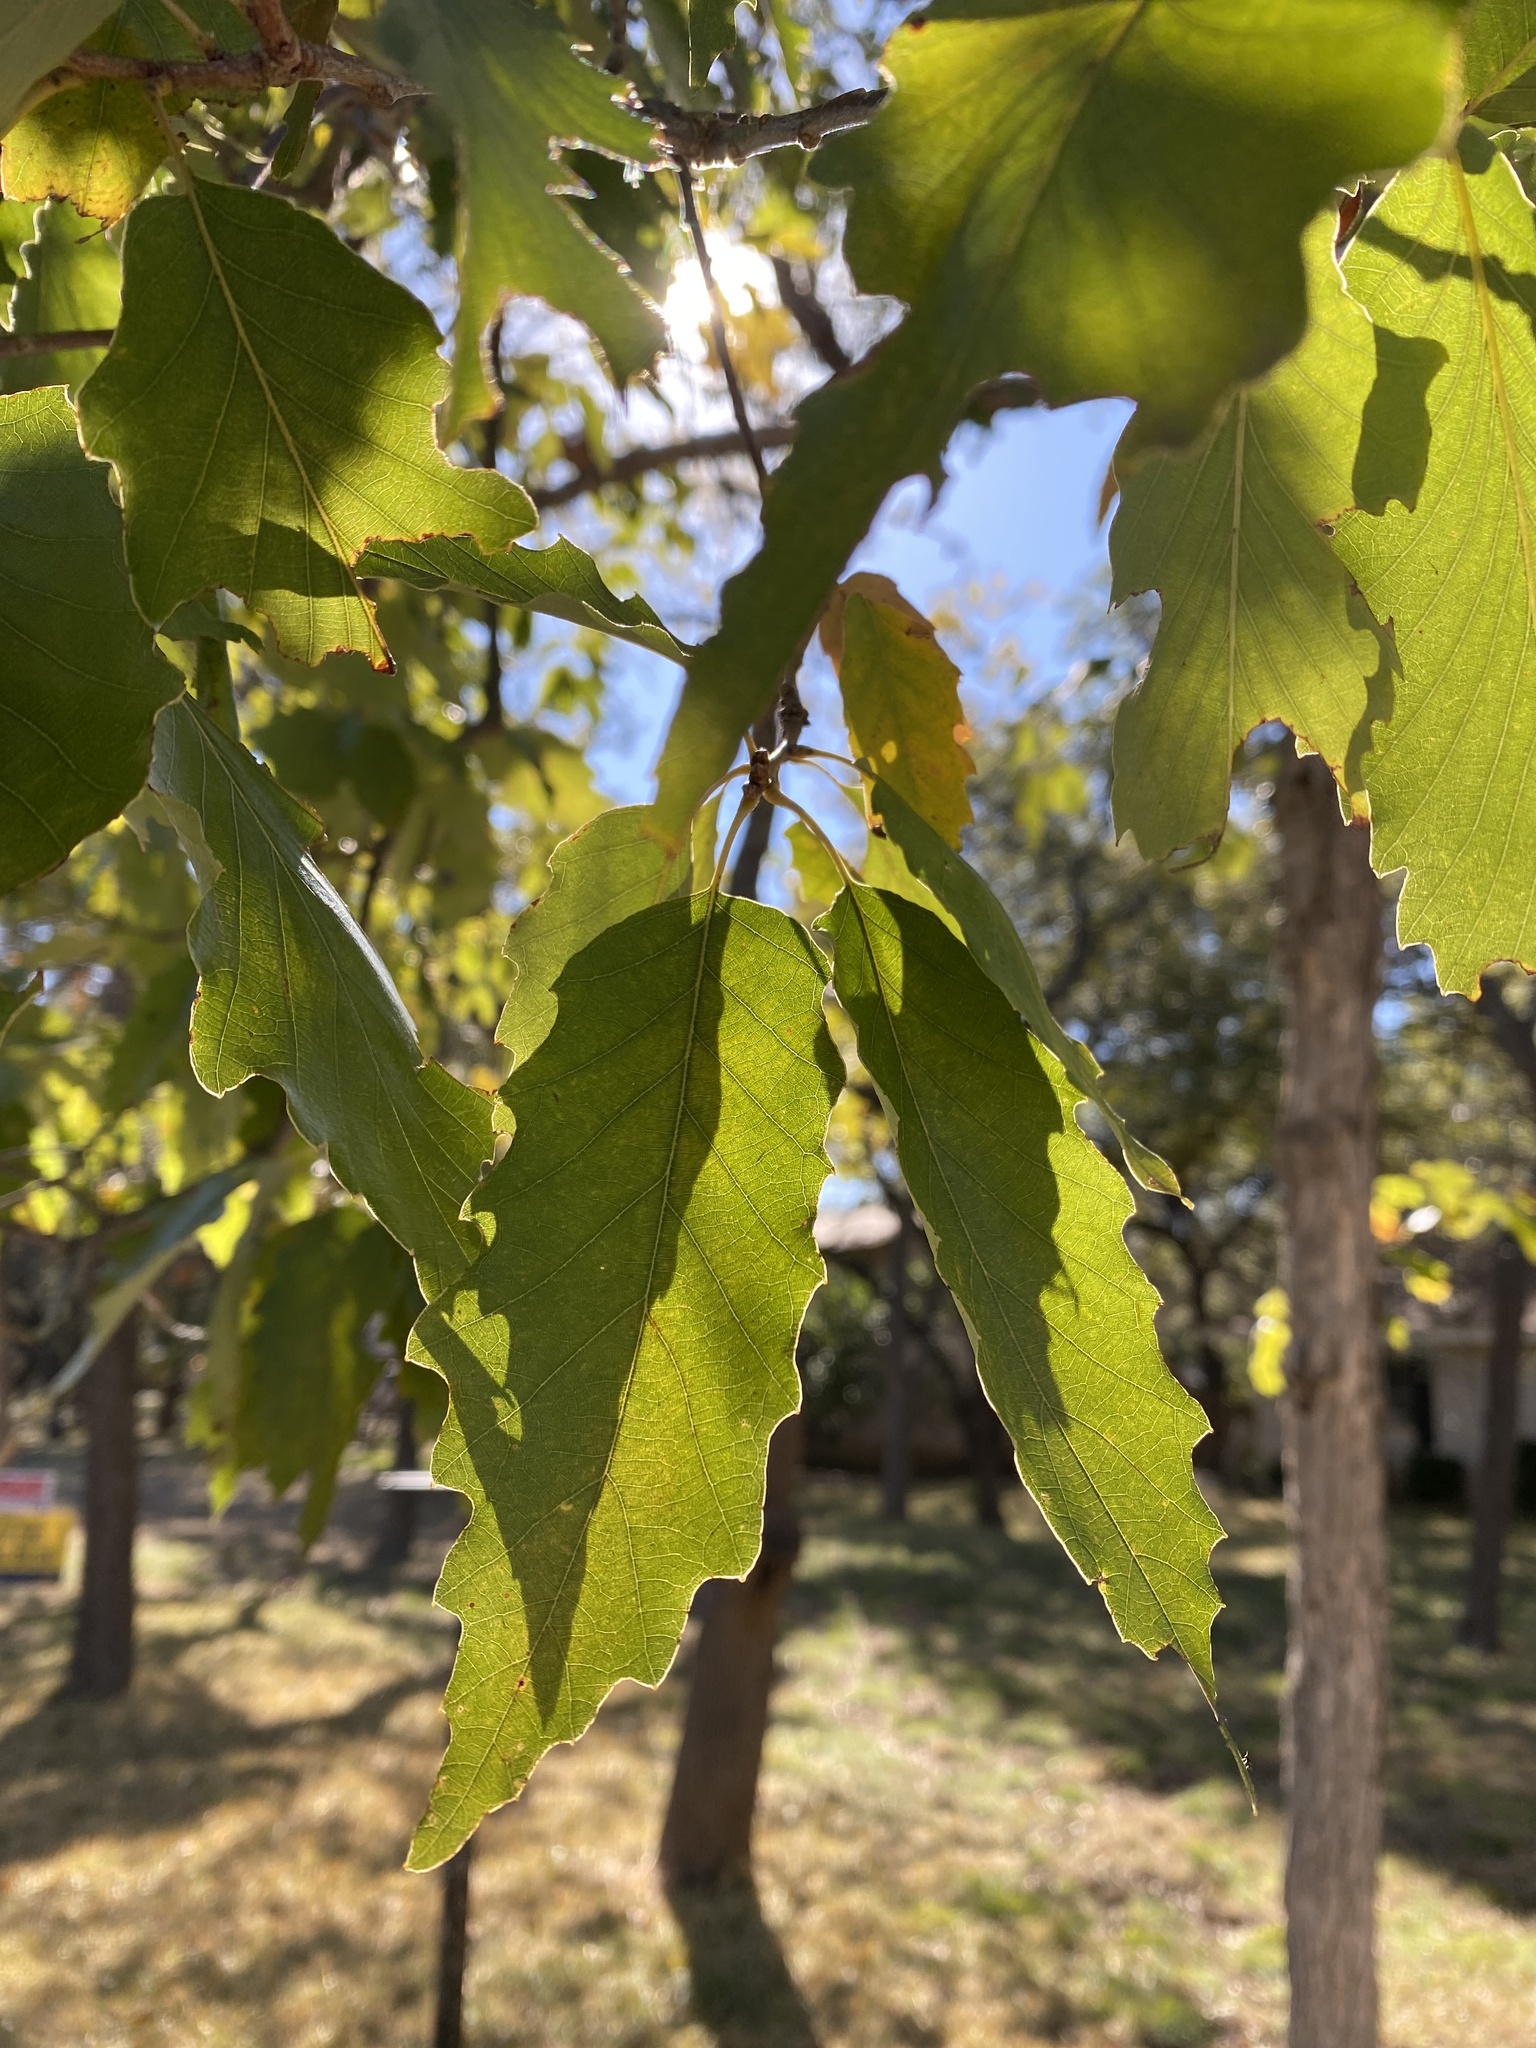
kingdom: Plantae
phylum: Tracheophyta
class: Magnoliopsida
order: Fagales
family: Fagaceae
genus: Quercus
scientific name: Quercus muehlenbergii
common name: Chinkapin oak
